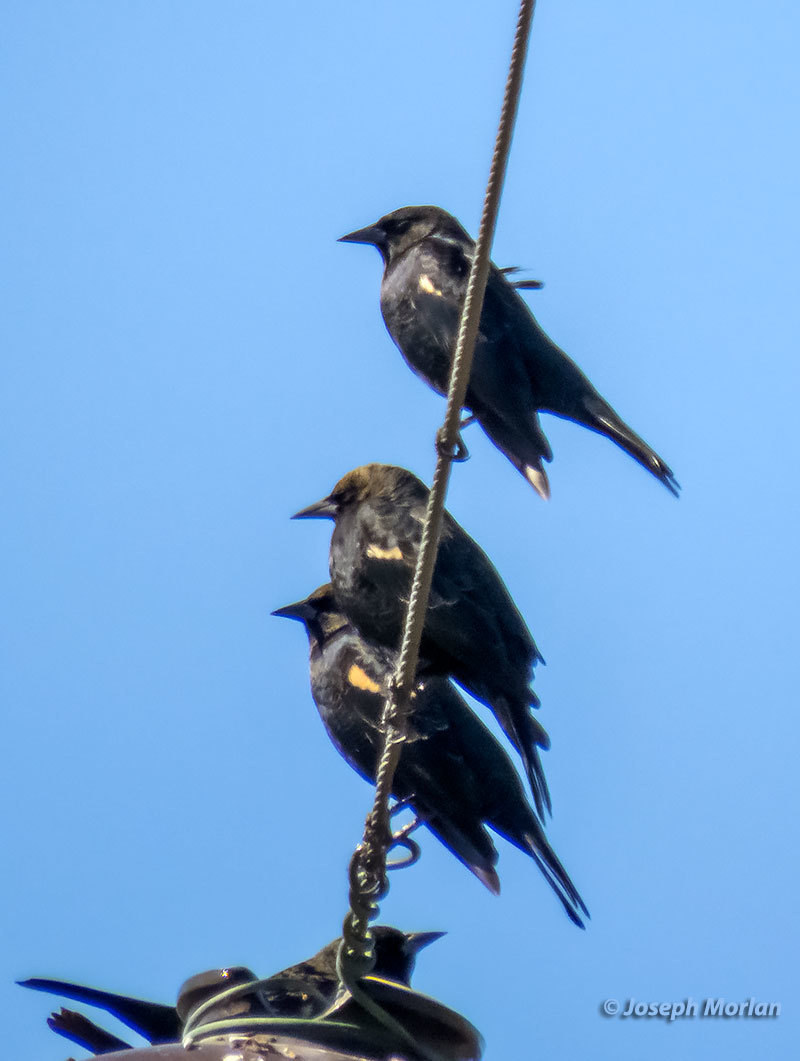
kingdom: Animalia
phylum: Chordata
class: Aves
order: Passeriformes
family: Icteridae
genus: Agelaius
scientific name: Agelaius tricolor
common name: Tricolored blackbird
